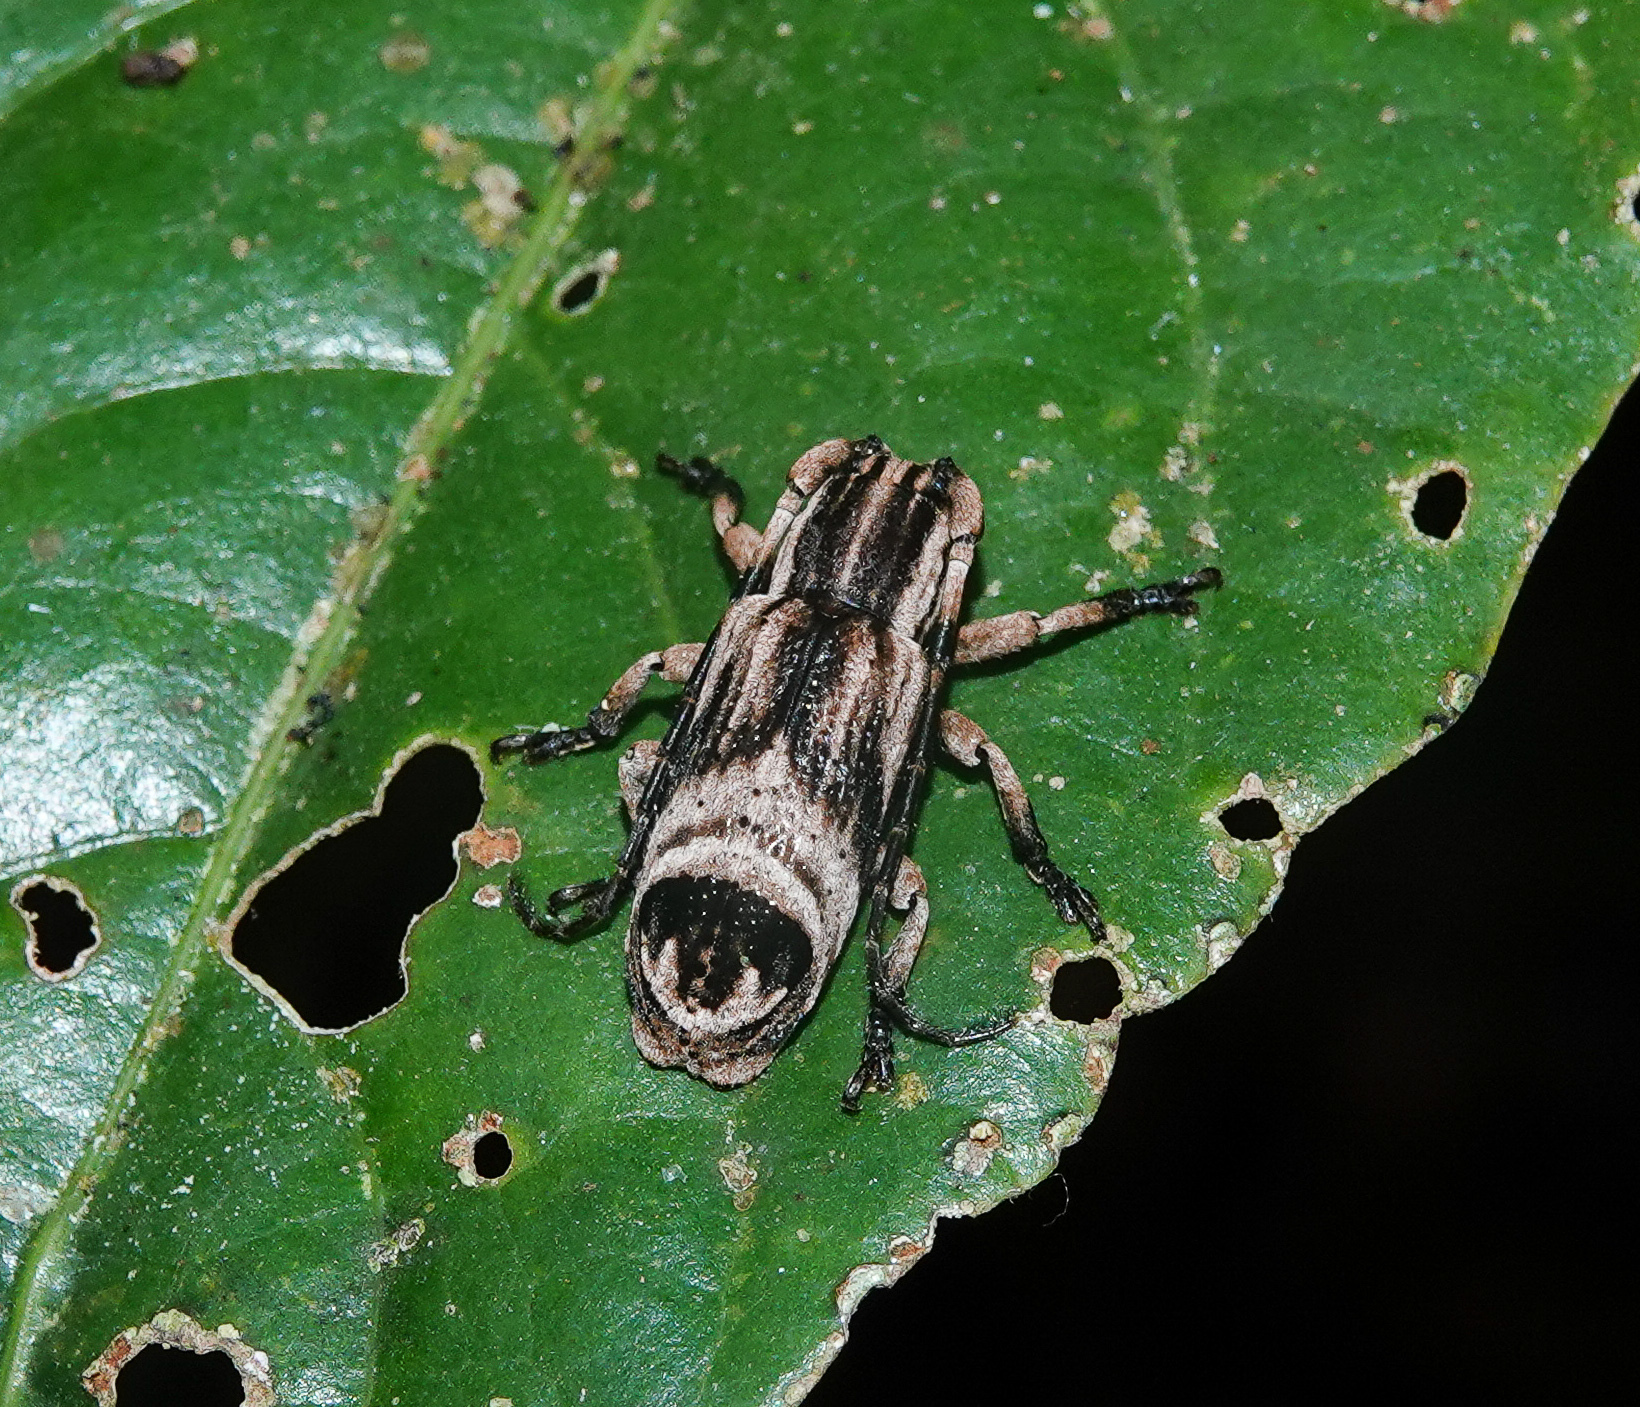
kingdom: Animalia
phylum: Arthropoda
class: Insecta
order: Coleoptera
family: Cerambycidae
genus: Sthenias
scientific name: Sthenias tonkinea
